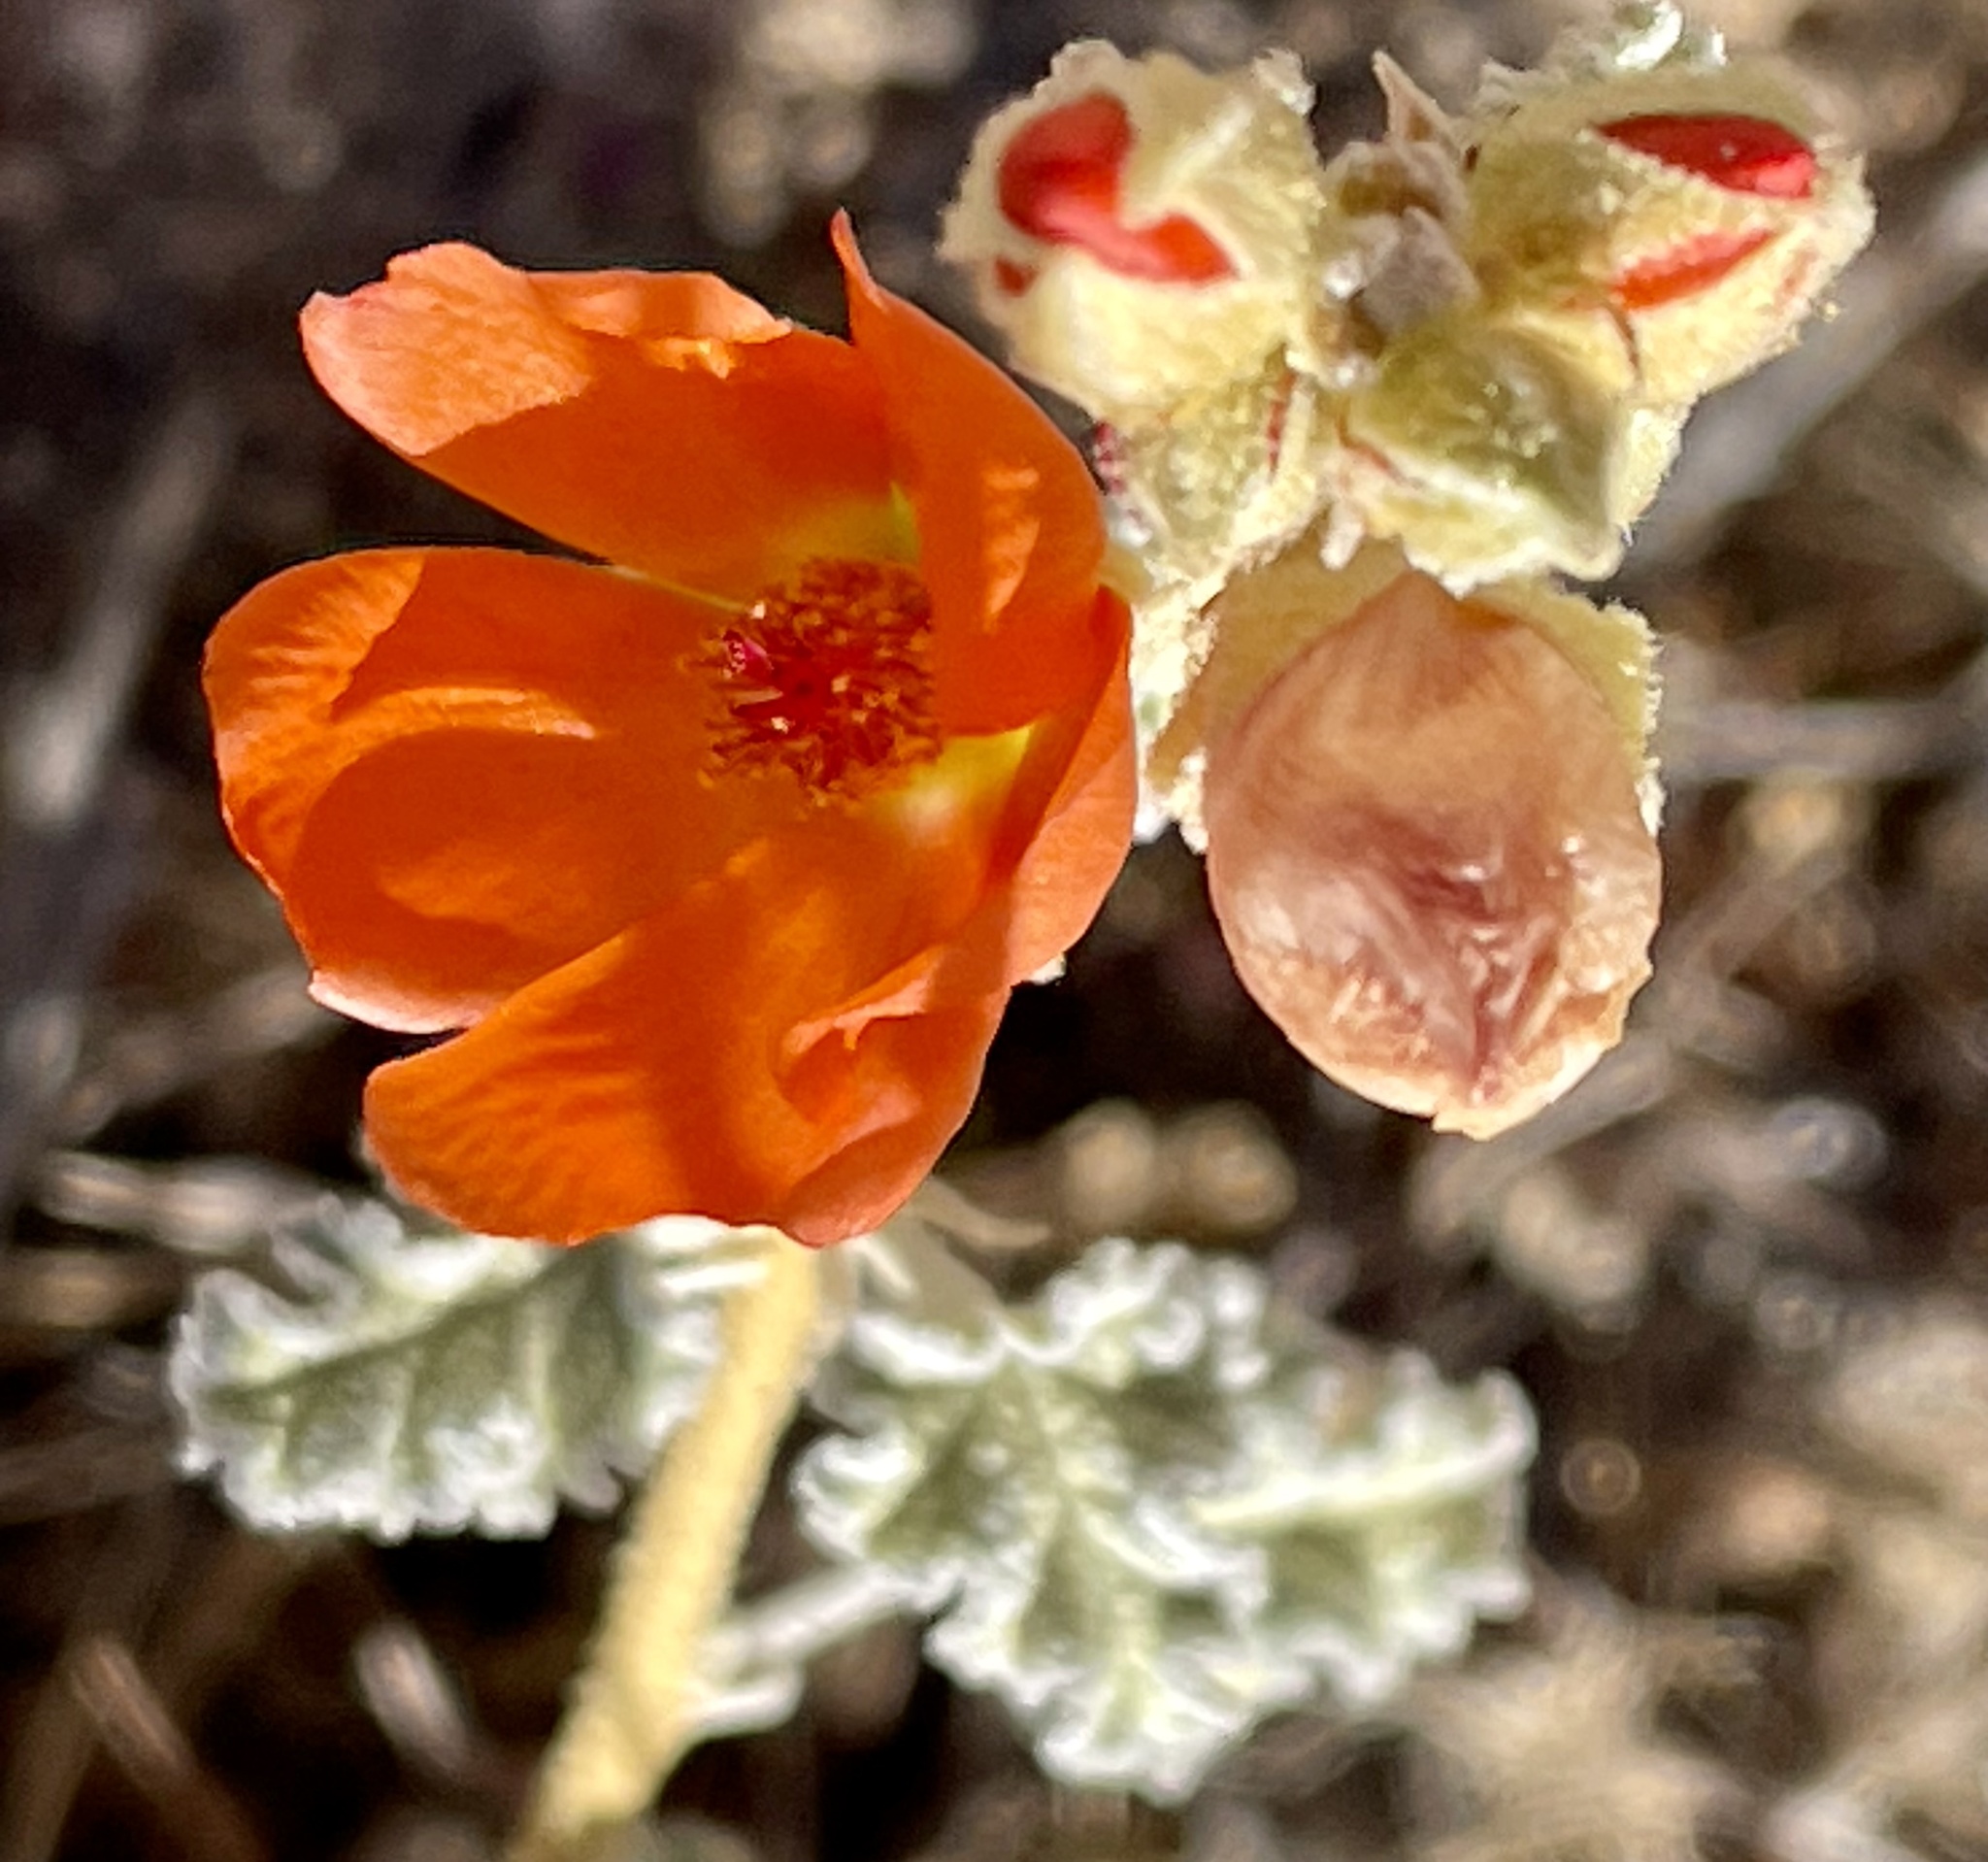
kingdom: Plantae
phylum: Tracheophyta
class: Magnoliopsida
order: Malvales
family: Malvaceae
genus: Sphaeralcea
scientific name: Sphaeralcea ambigua
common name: Apricot globe-mallow
